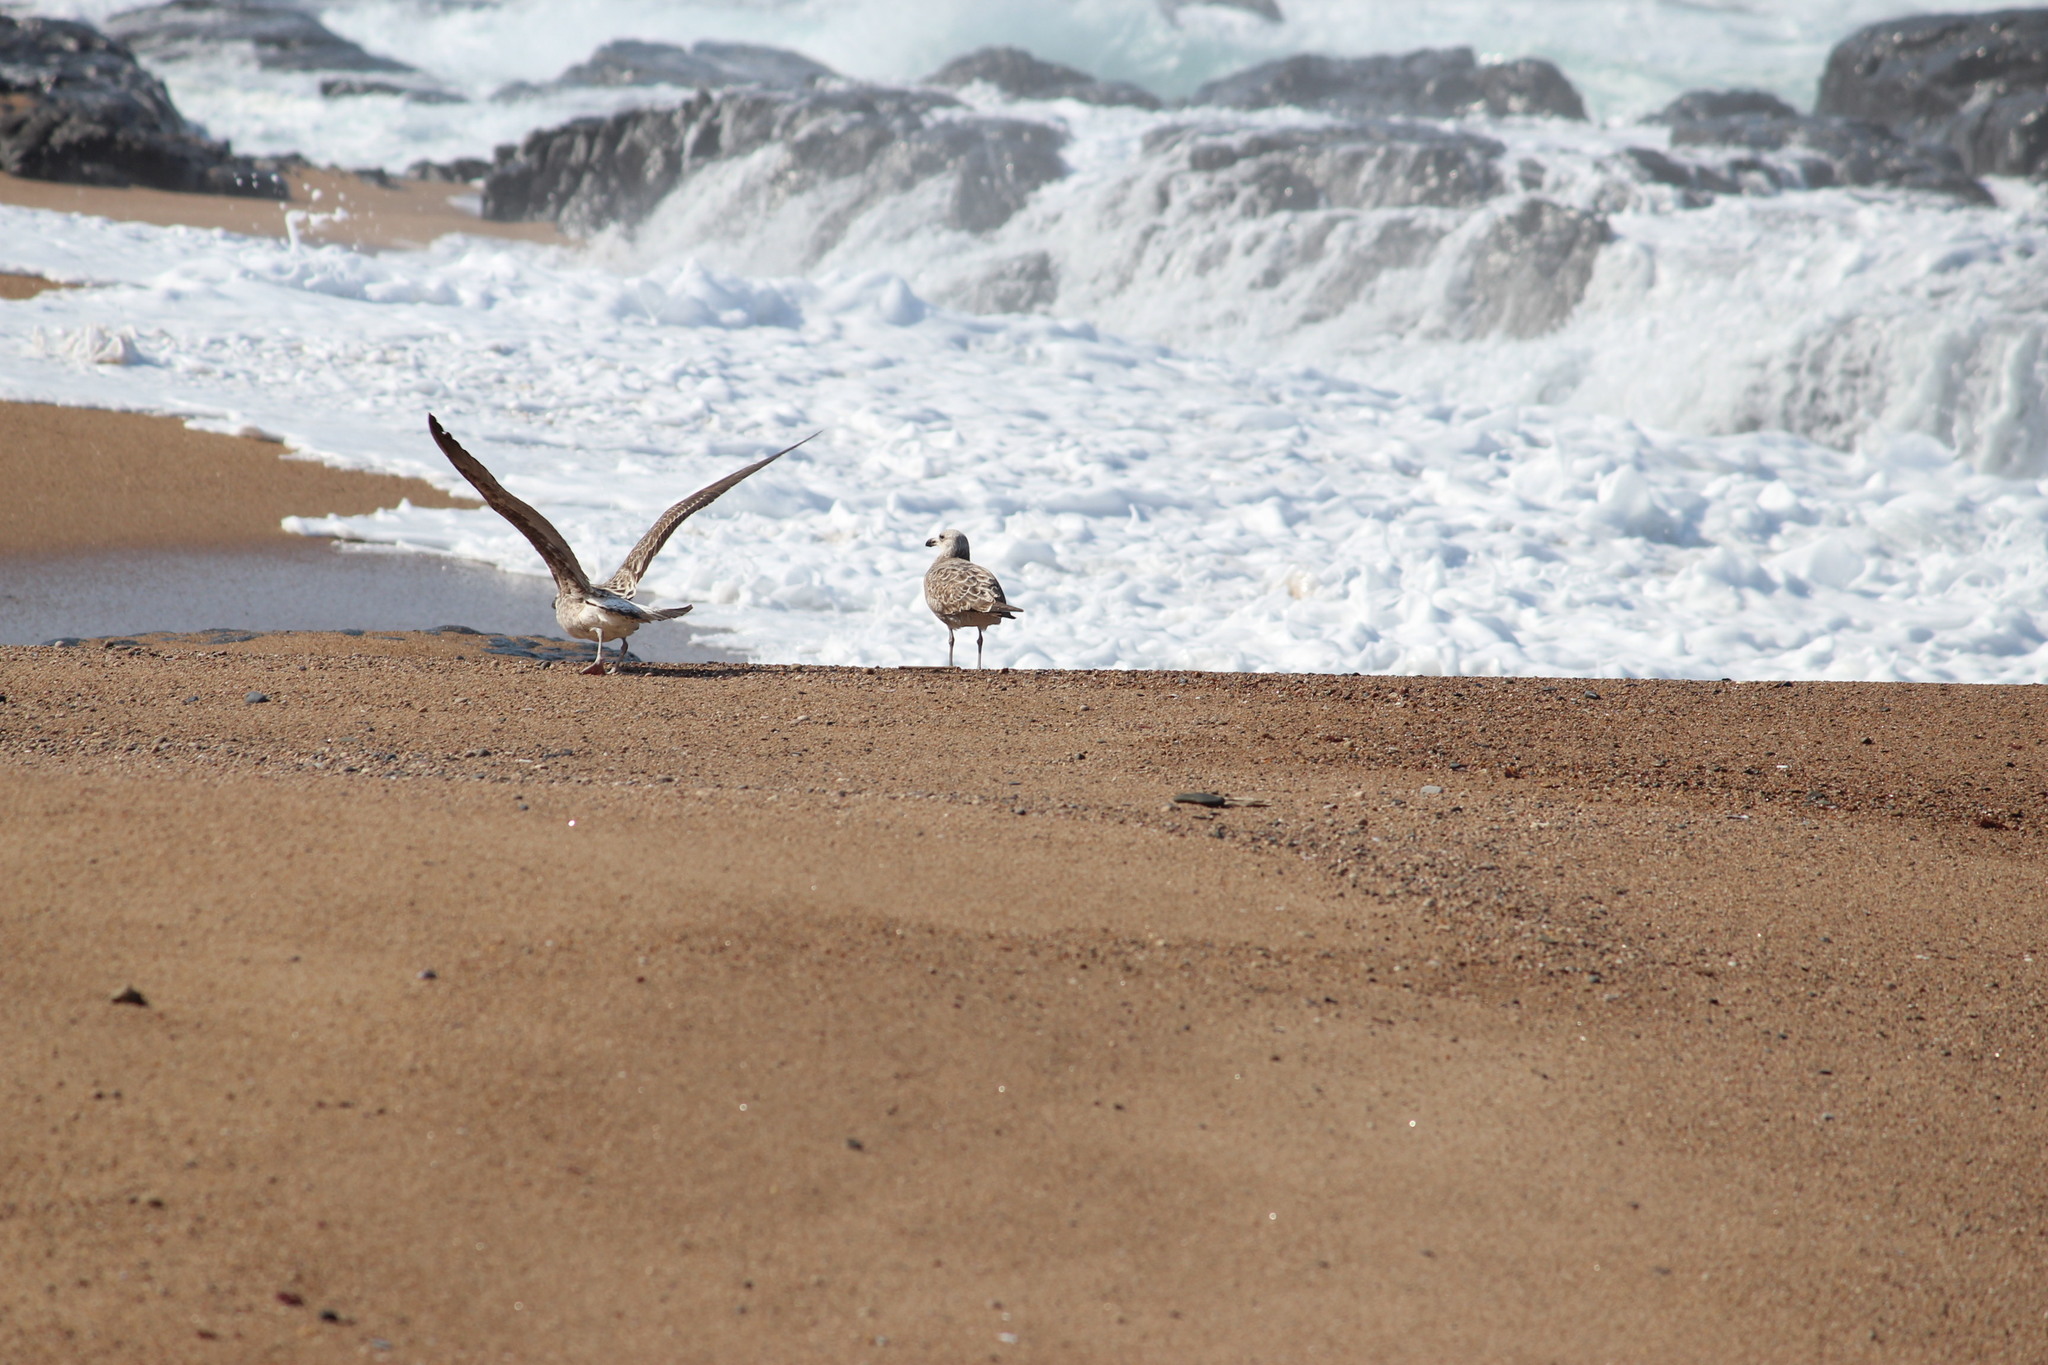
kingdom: Animalia
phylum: Chordata
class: Aves
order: Charadriiformes
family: Laridae
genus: Larus
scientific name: Larus dominicanus
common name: Kelp gull
